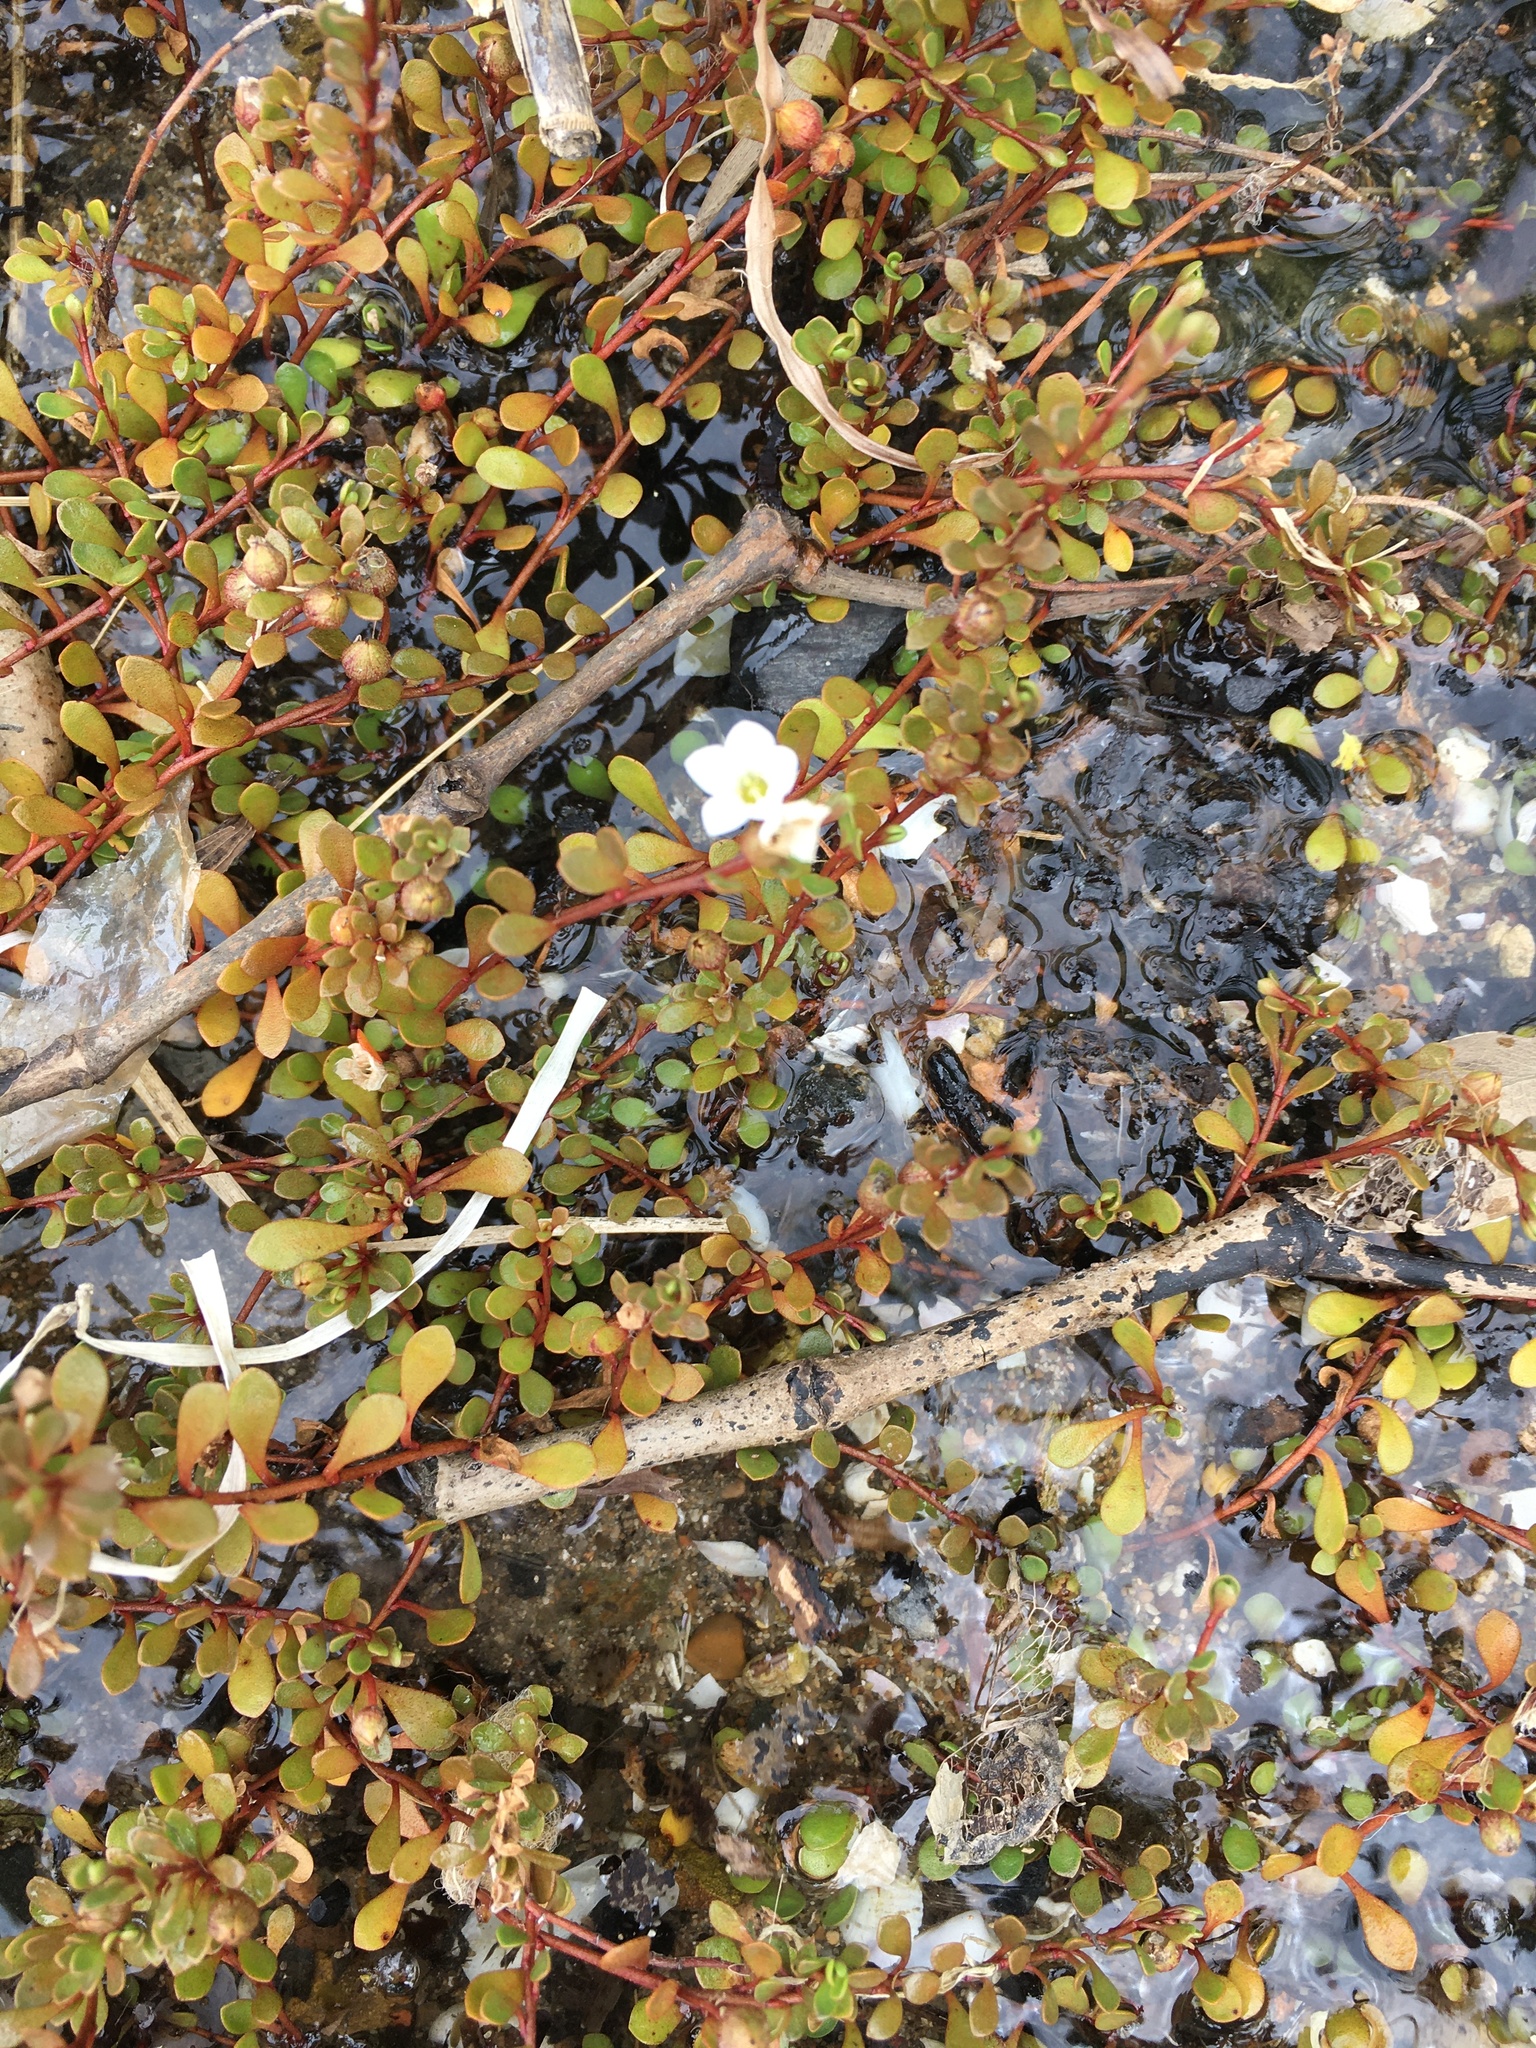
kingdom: Plantae
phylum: Tracheophyta
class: Magnoliopsida
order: Ericales
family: Primulaceae
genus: Samolus
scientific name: Samolus repens
